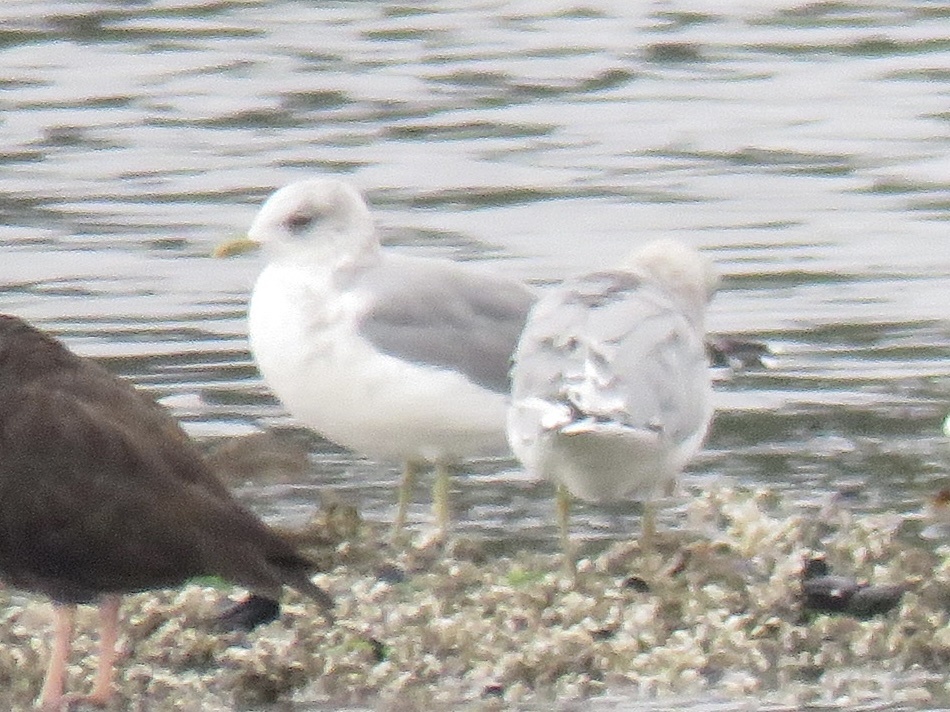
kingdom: Animalia
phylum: Chordata
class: Aves
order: Charadriiformes
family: Laridae
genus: Larus
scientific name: Larus brachyrhynchus
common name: Short-billed gull
